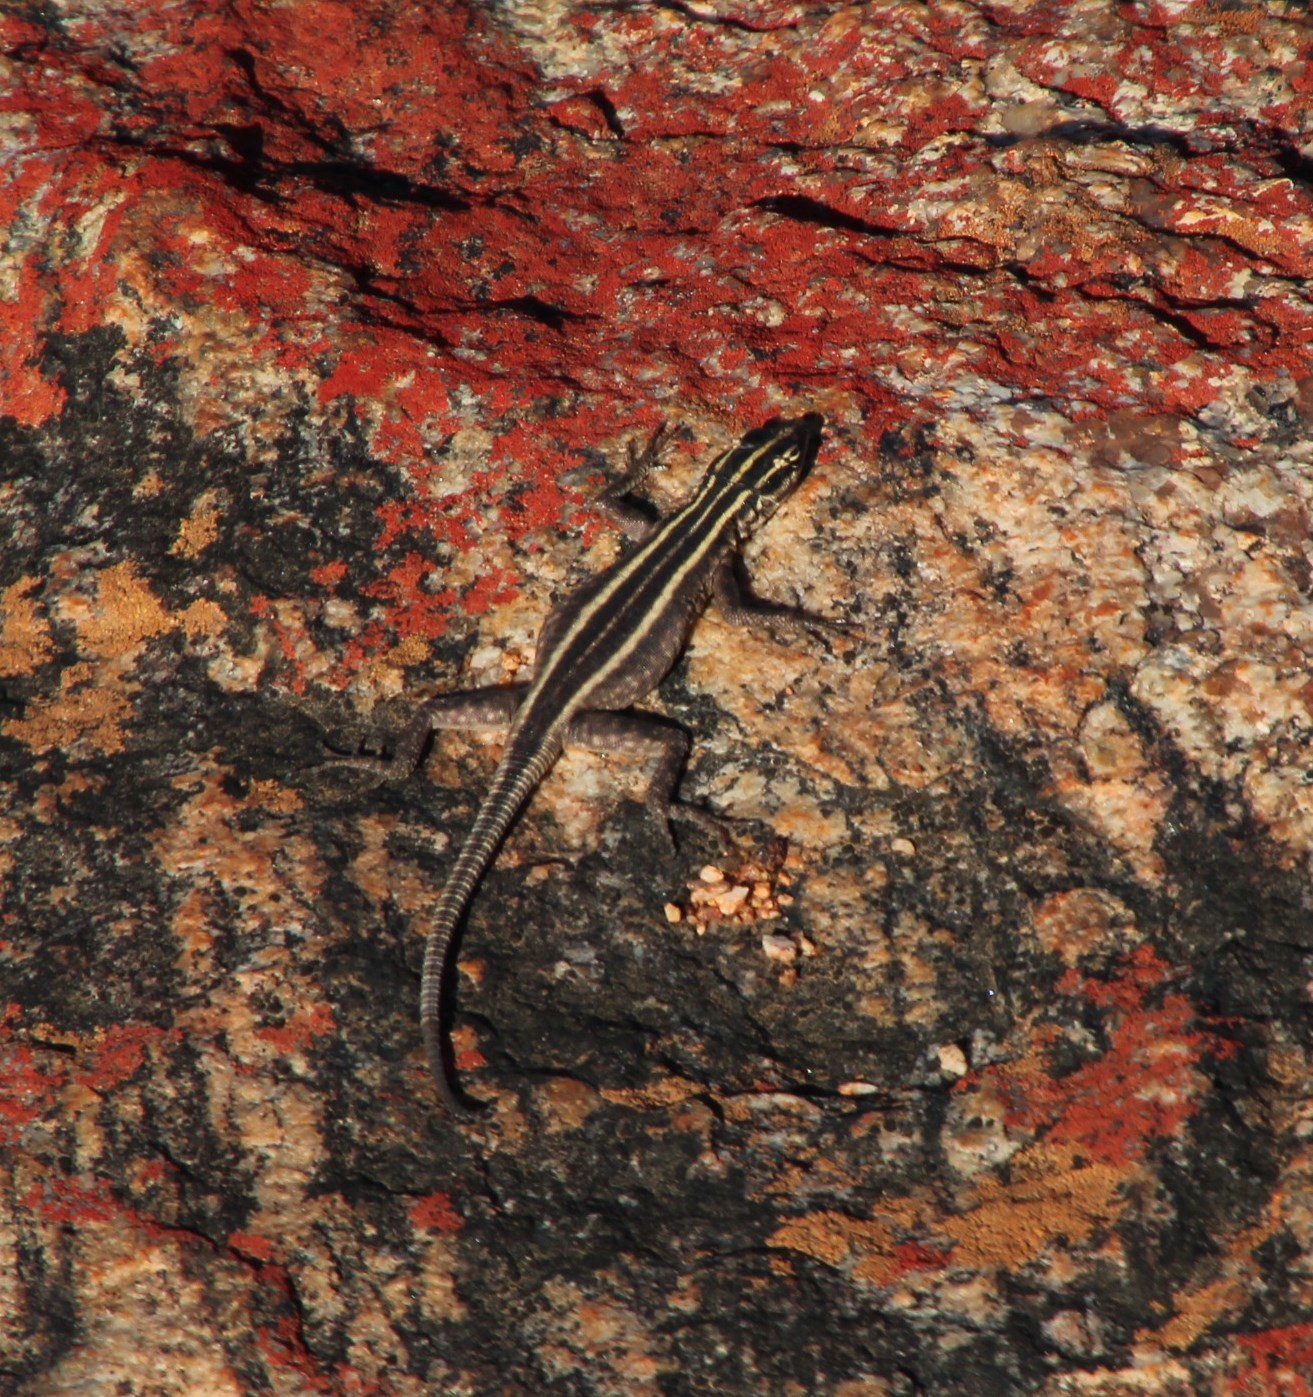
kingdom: Animalia
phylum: Chordata
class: Squamata
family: Cordylidae
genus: Platysaurus
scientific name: Platysaurus capensis
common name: Namaqua flat lizard
